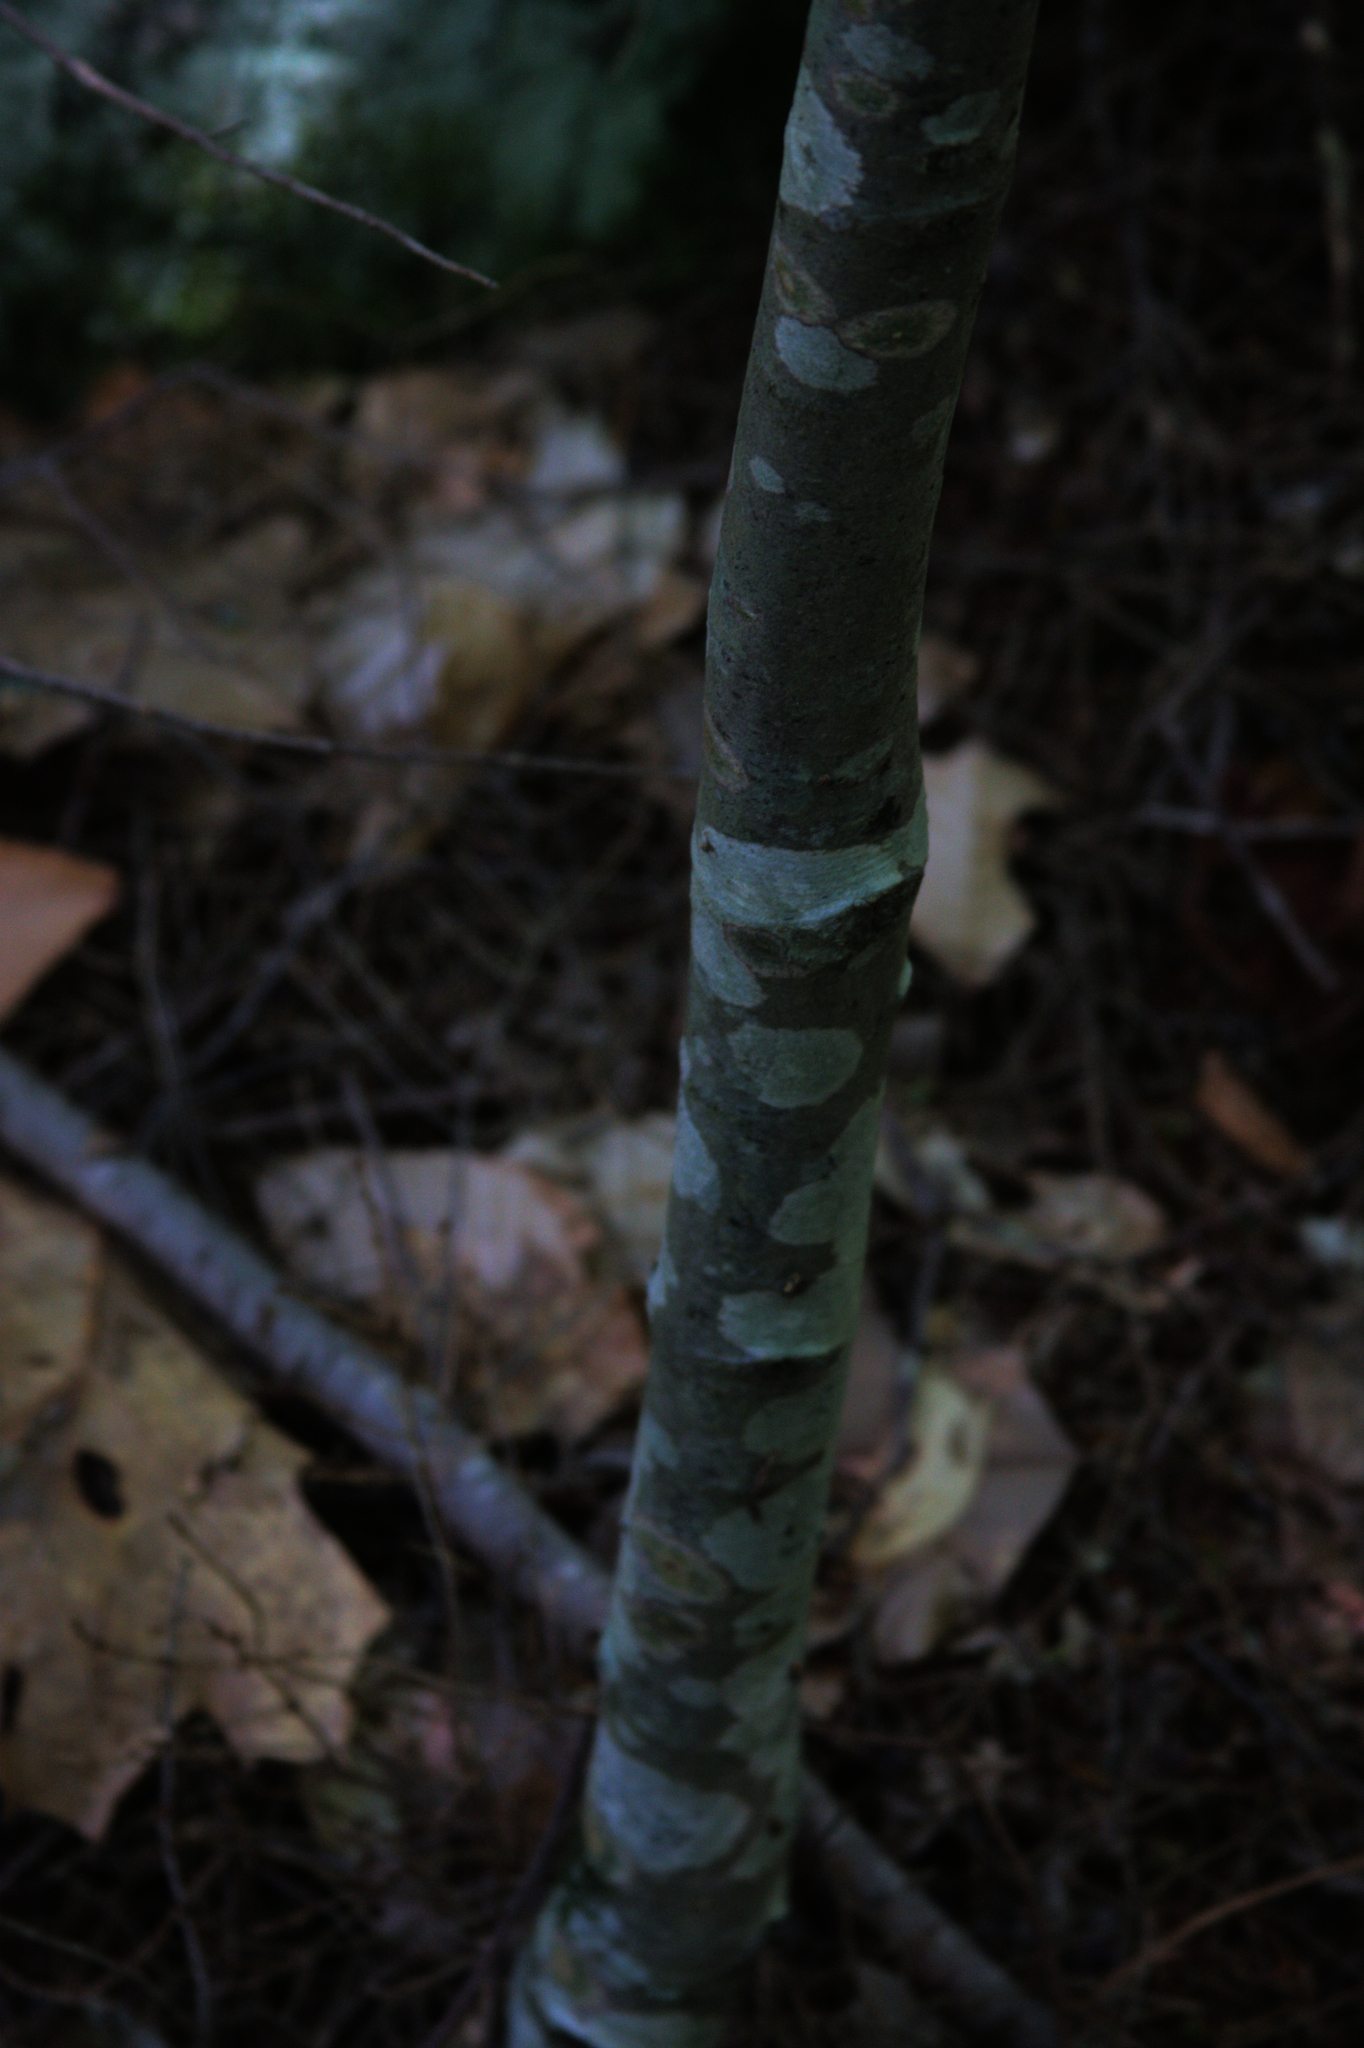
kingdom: Plantae
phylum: Tracheophyta
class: Magnoliopsida
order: Fagales
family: Fagaceae
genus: Quercus
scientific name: Quercus rubra
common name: Red oak
